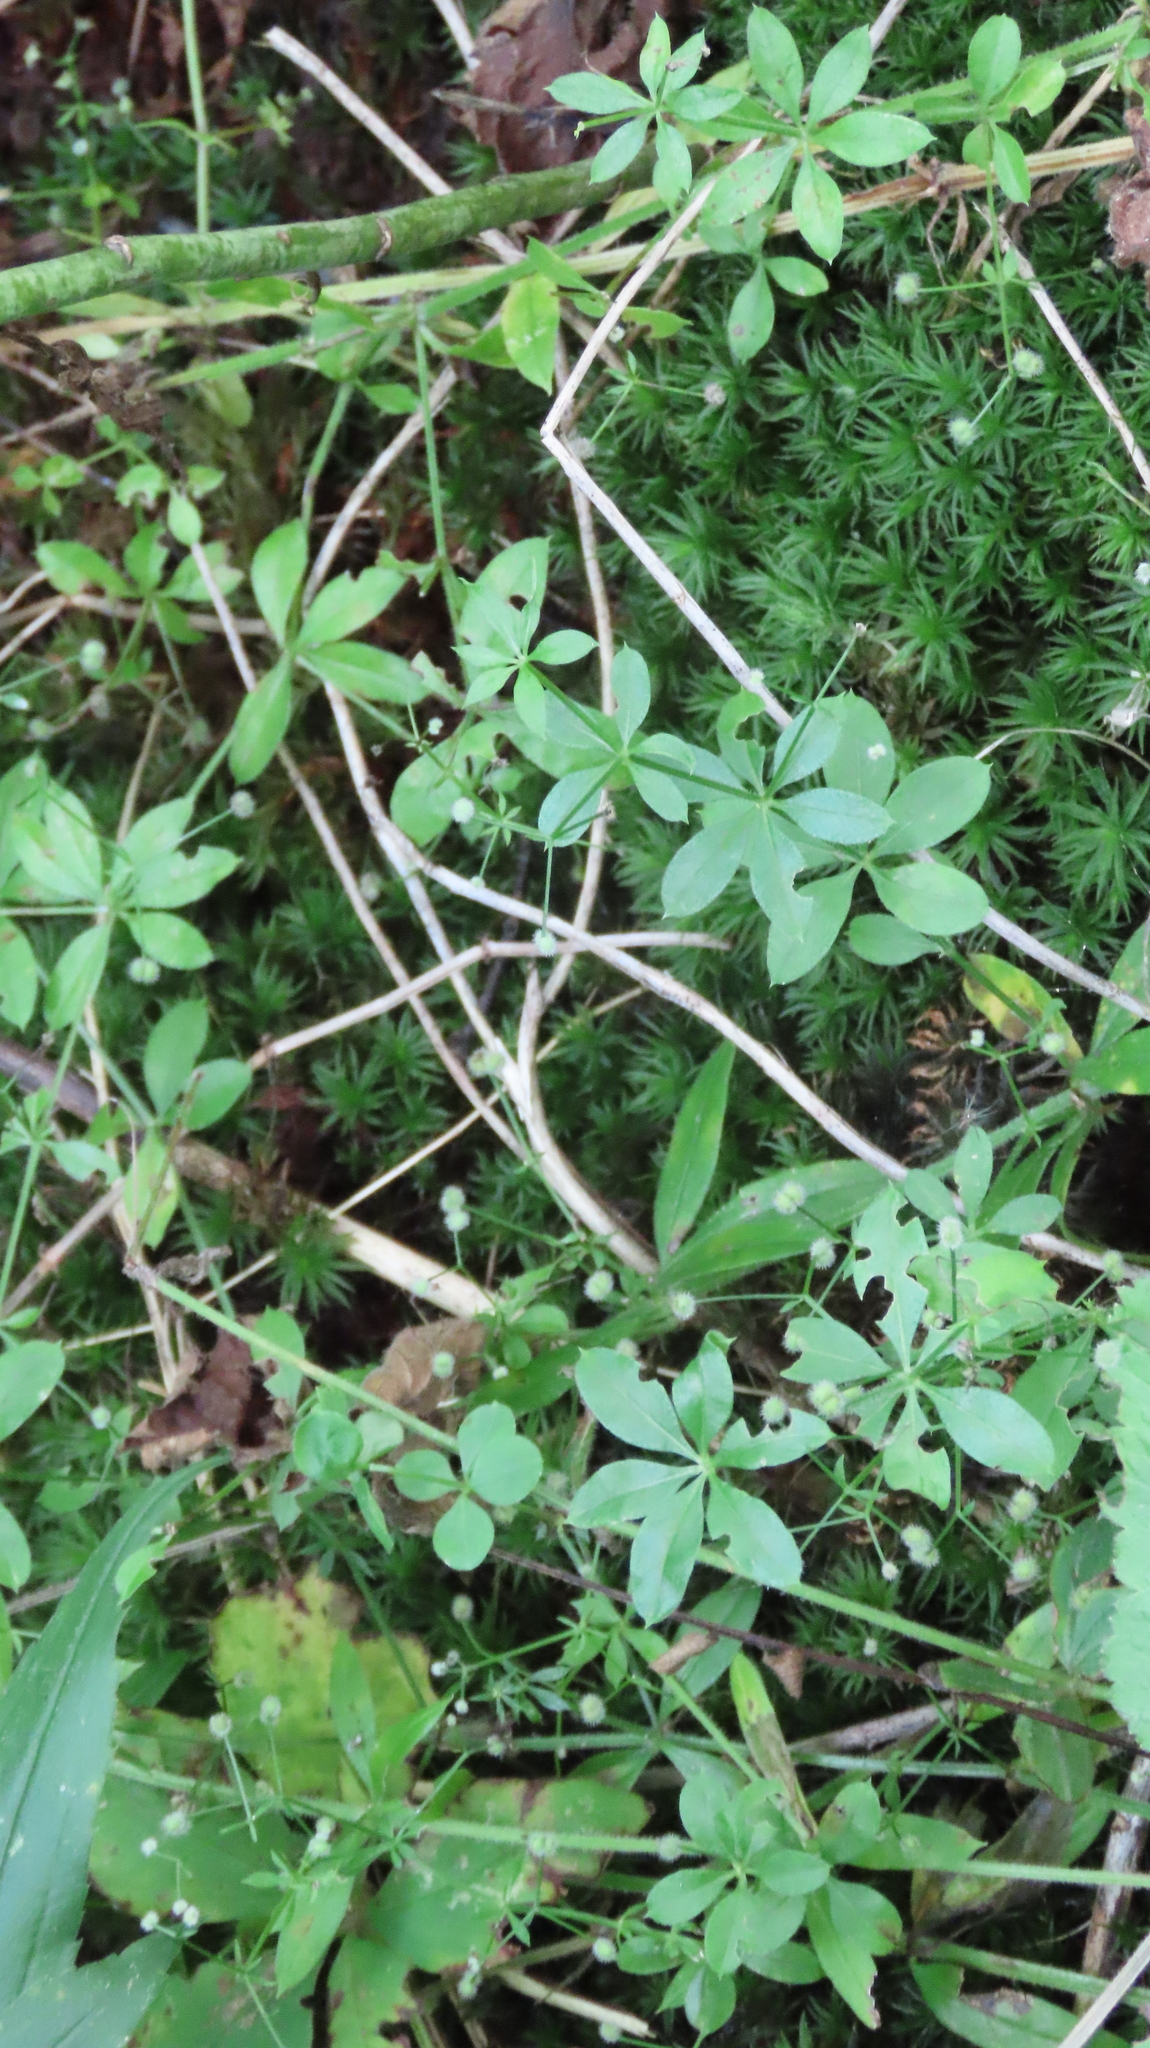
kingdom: Plantae
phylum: Tracheophyta
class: Magnoliopsida
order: Gentianales
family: Rubiaceae
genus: Galium
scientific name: Galium triflorum
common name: Fragrant bedstraw
